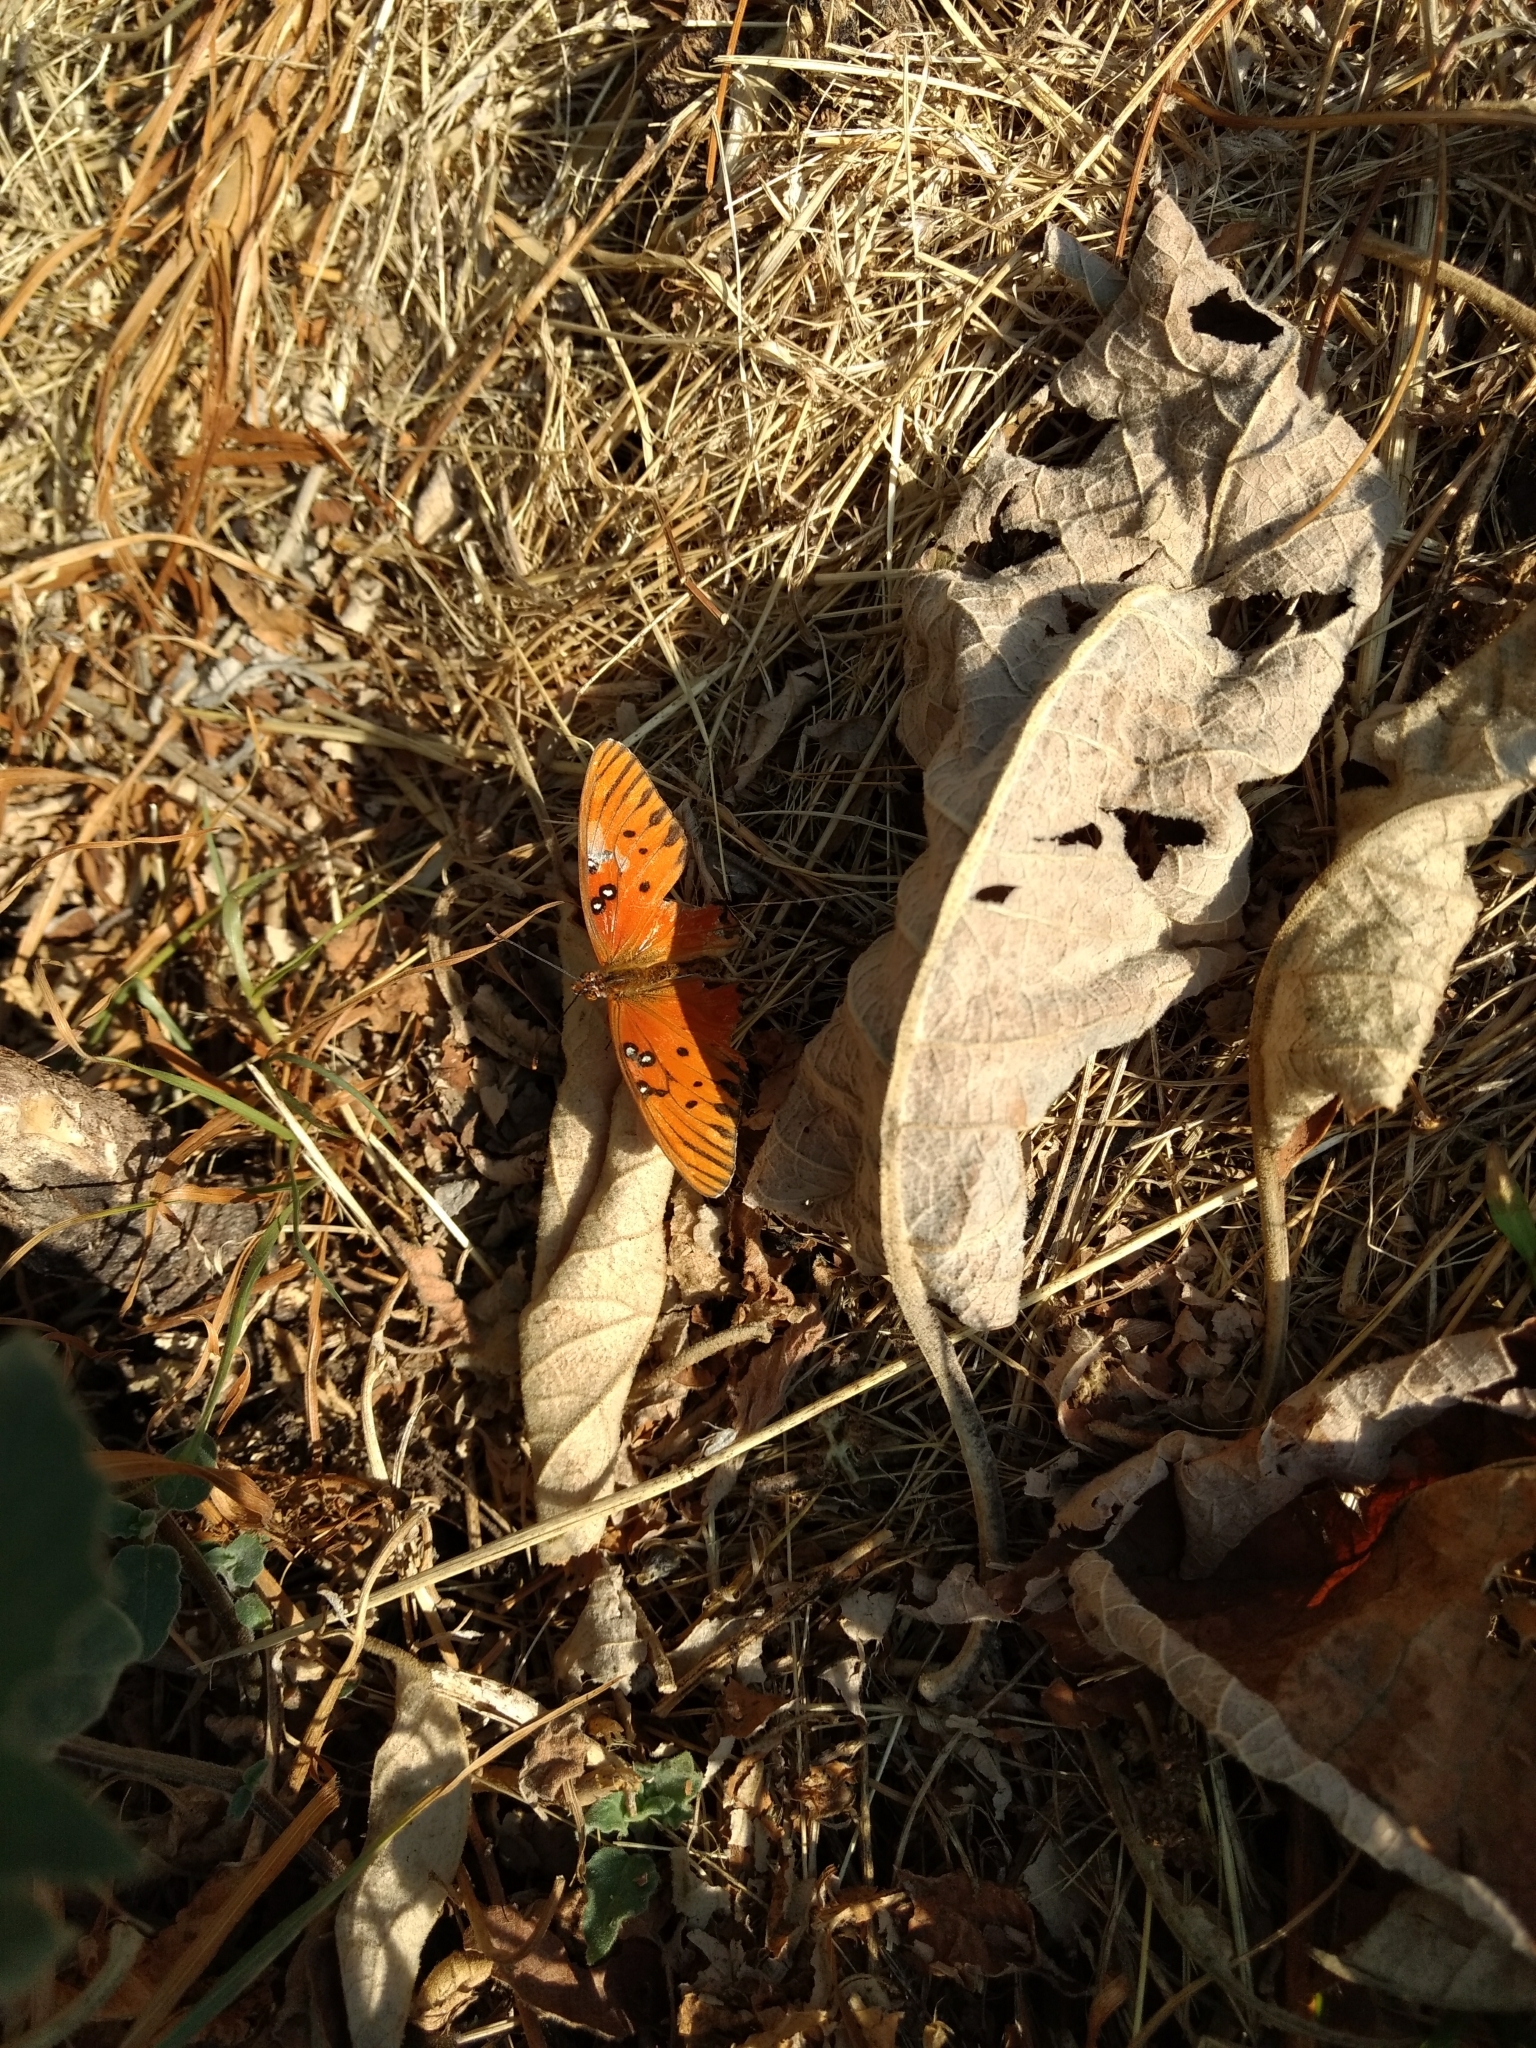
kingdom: Animalia
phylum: Arthropoda
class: Insecta
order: Lepidoptera
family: Nymphalidae
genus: Dione
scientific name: Dione vanillae
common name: Gulf fritillary
